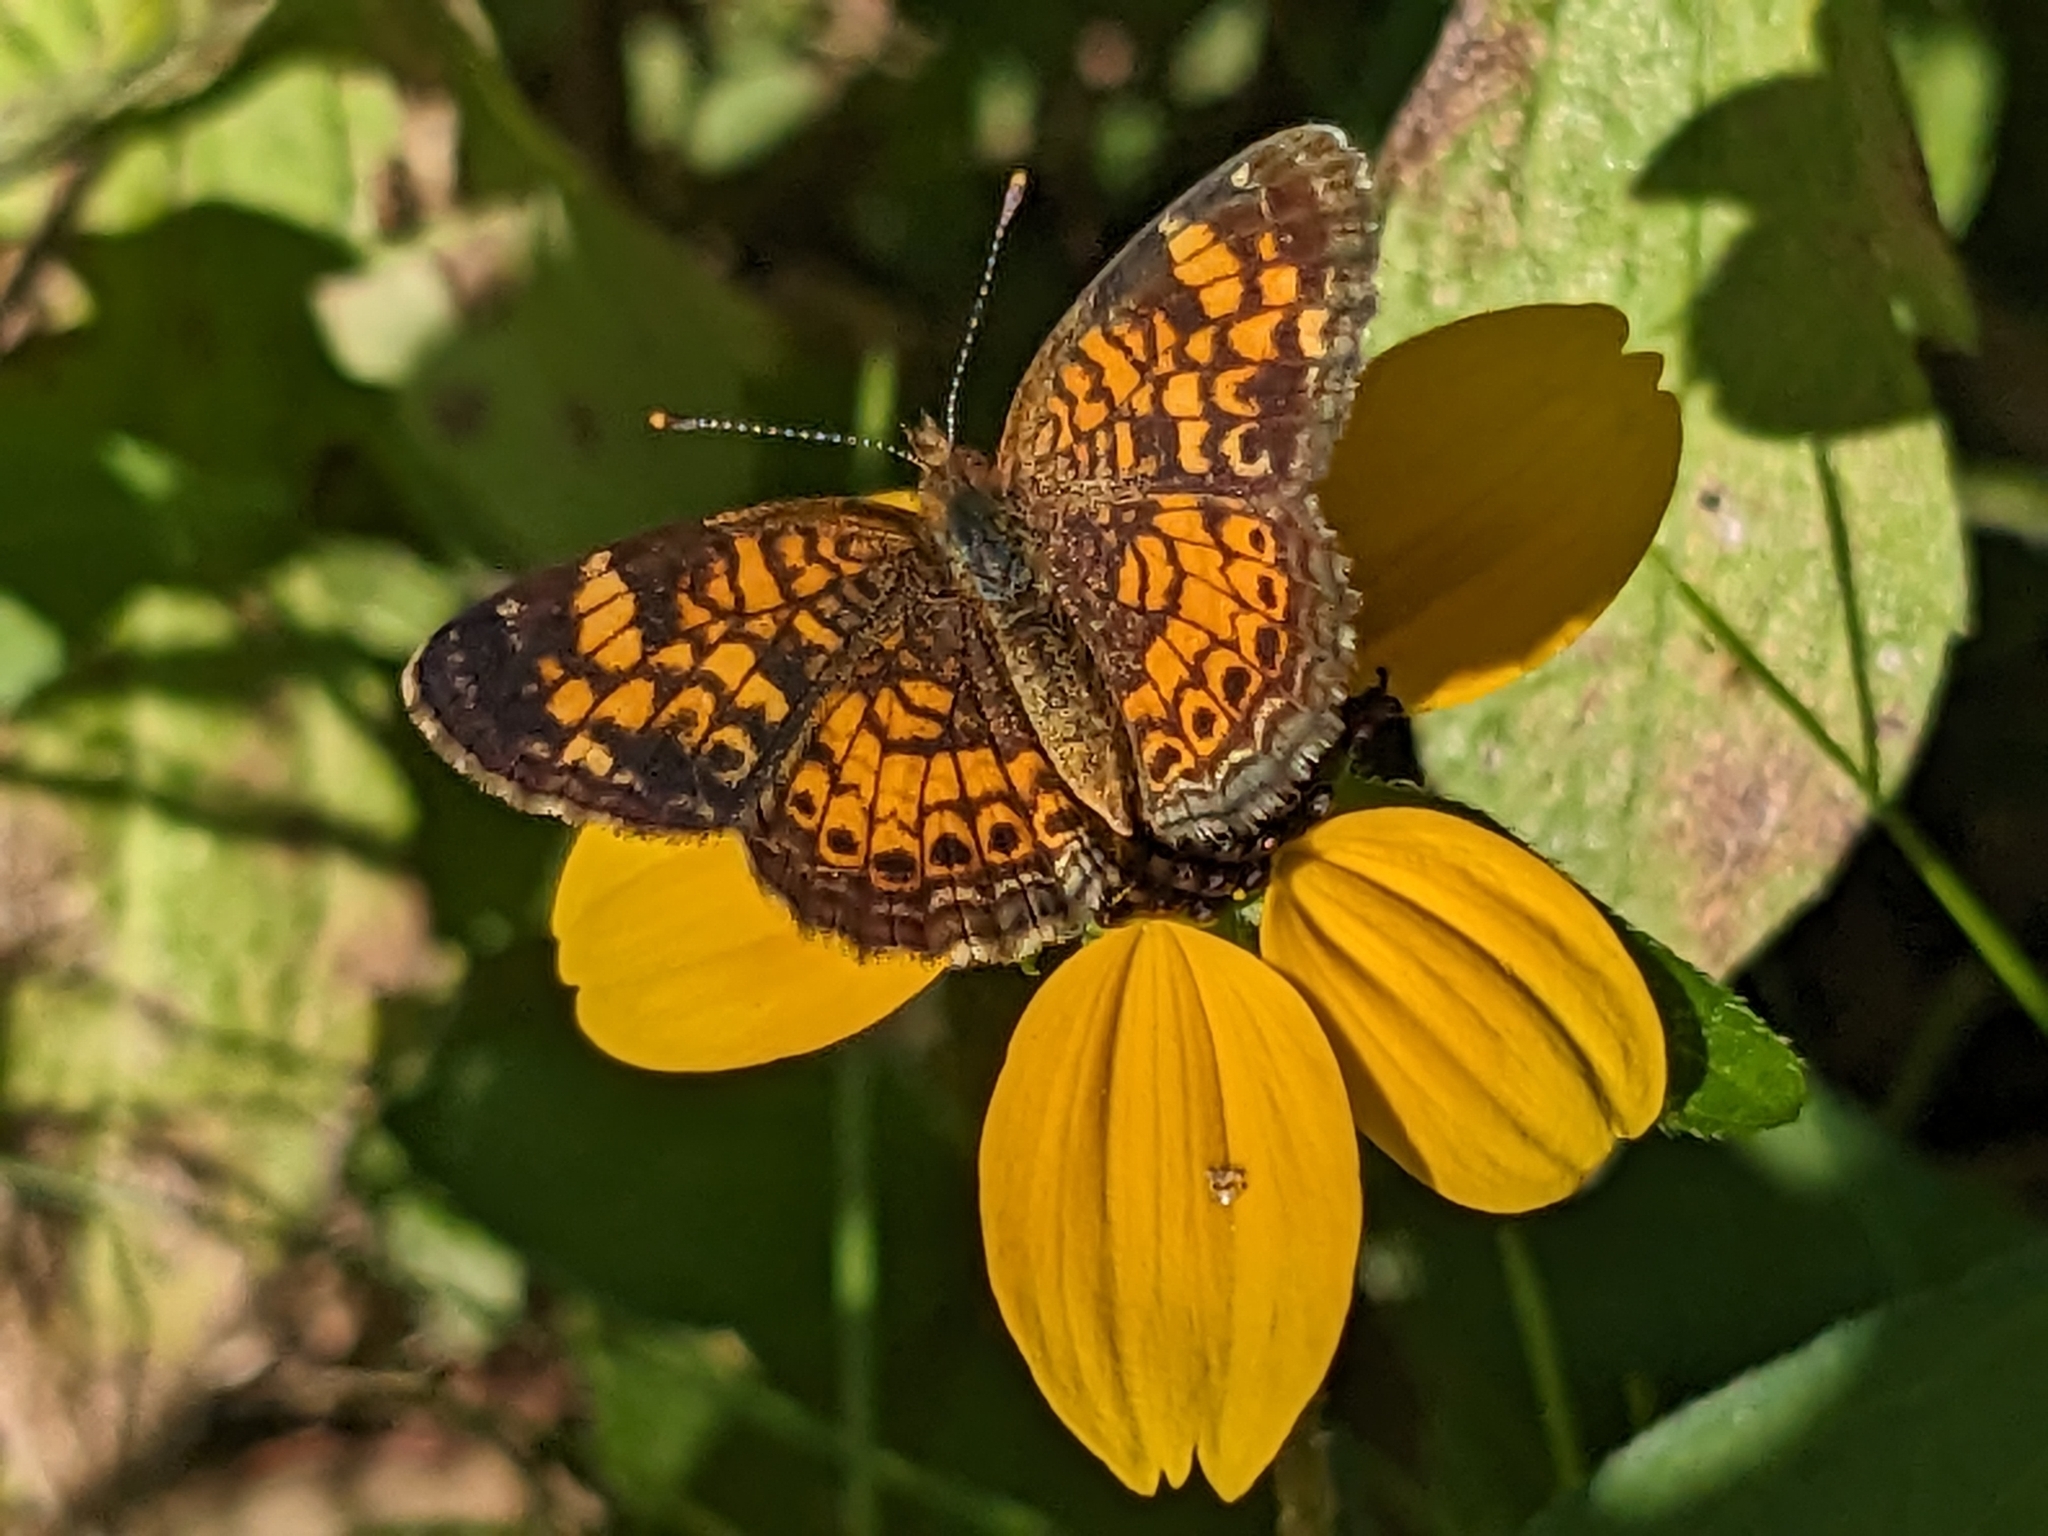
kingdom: Animalia
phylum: Arthropoda
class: Insecta
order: Lepidoptera
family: Nymphalidae
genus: Phyciodes
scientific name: Phyciodes tharos
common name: Pearl crescent
